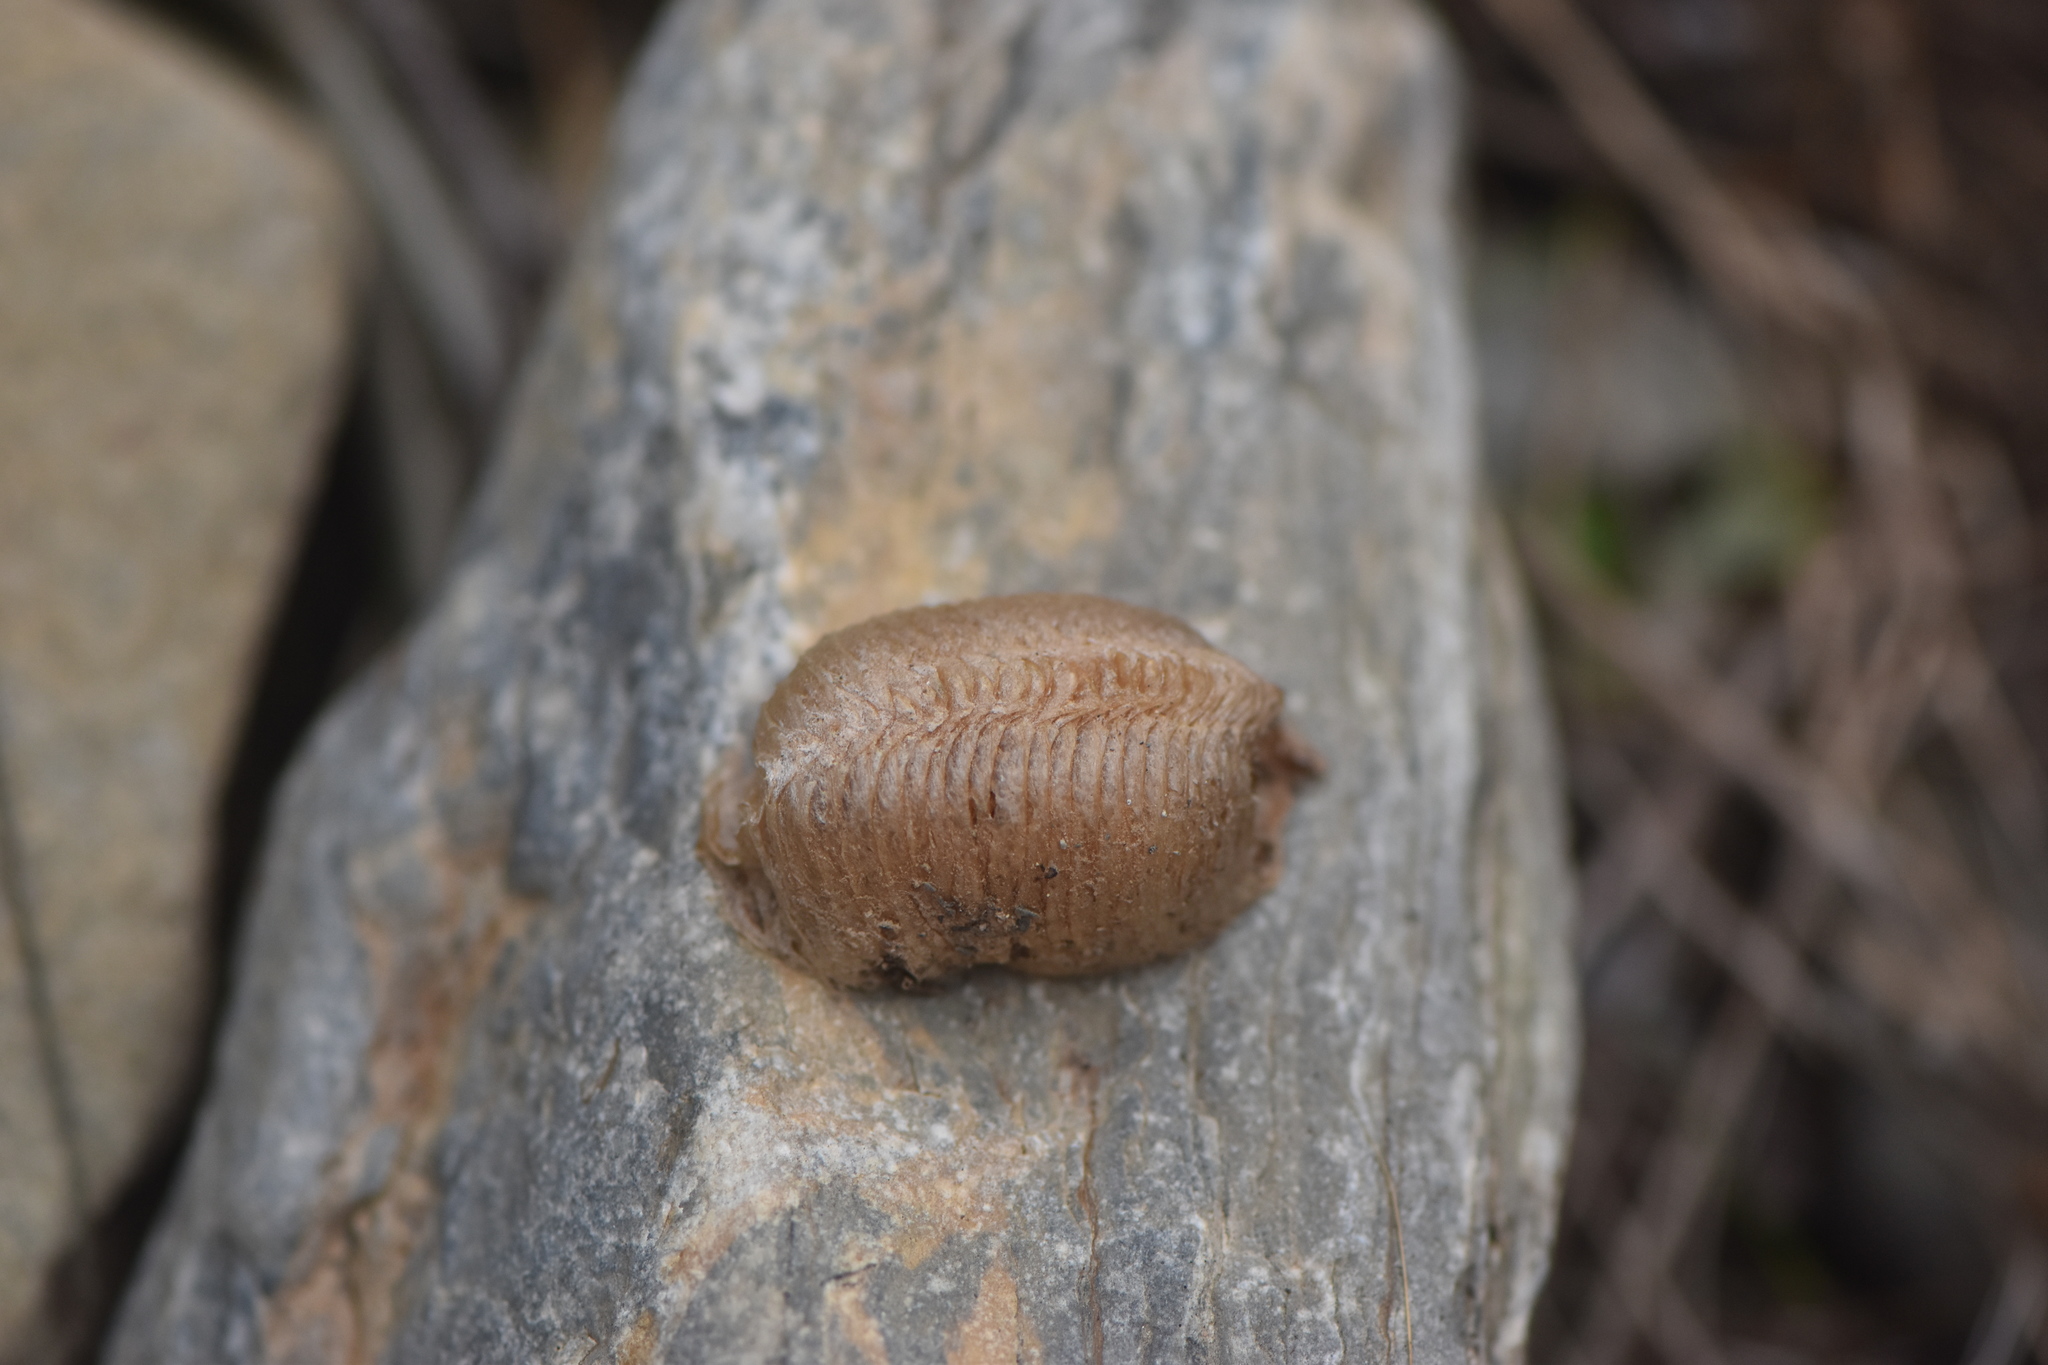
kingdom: Animalia
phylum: Arthropoda
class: Insecta
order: Mantodea
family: Mantidae
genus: Mantis
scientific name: Mantis religiosa
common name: Praying mantis
